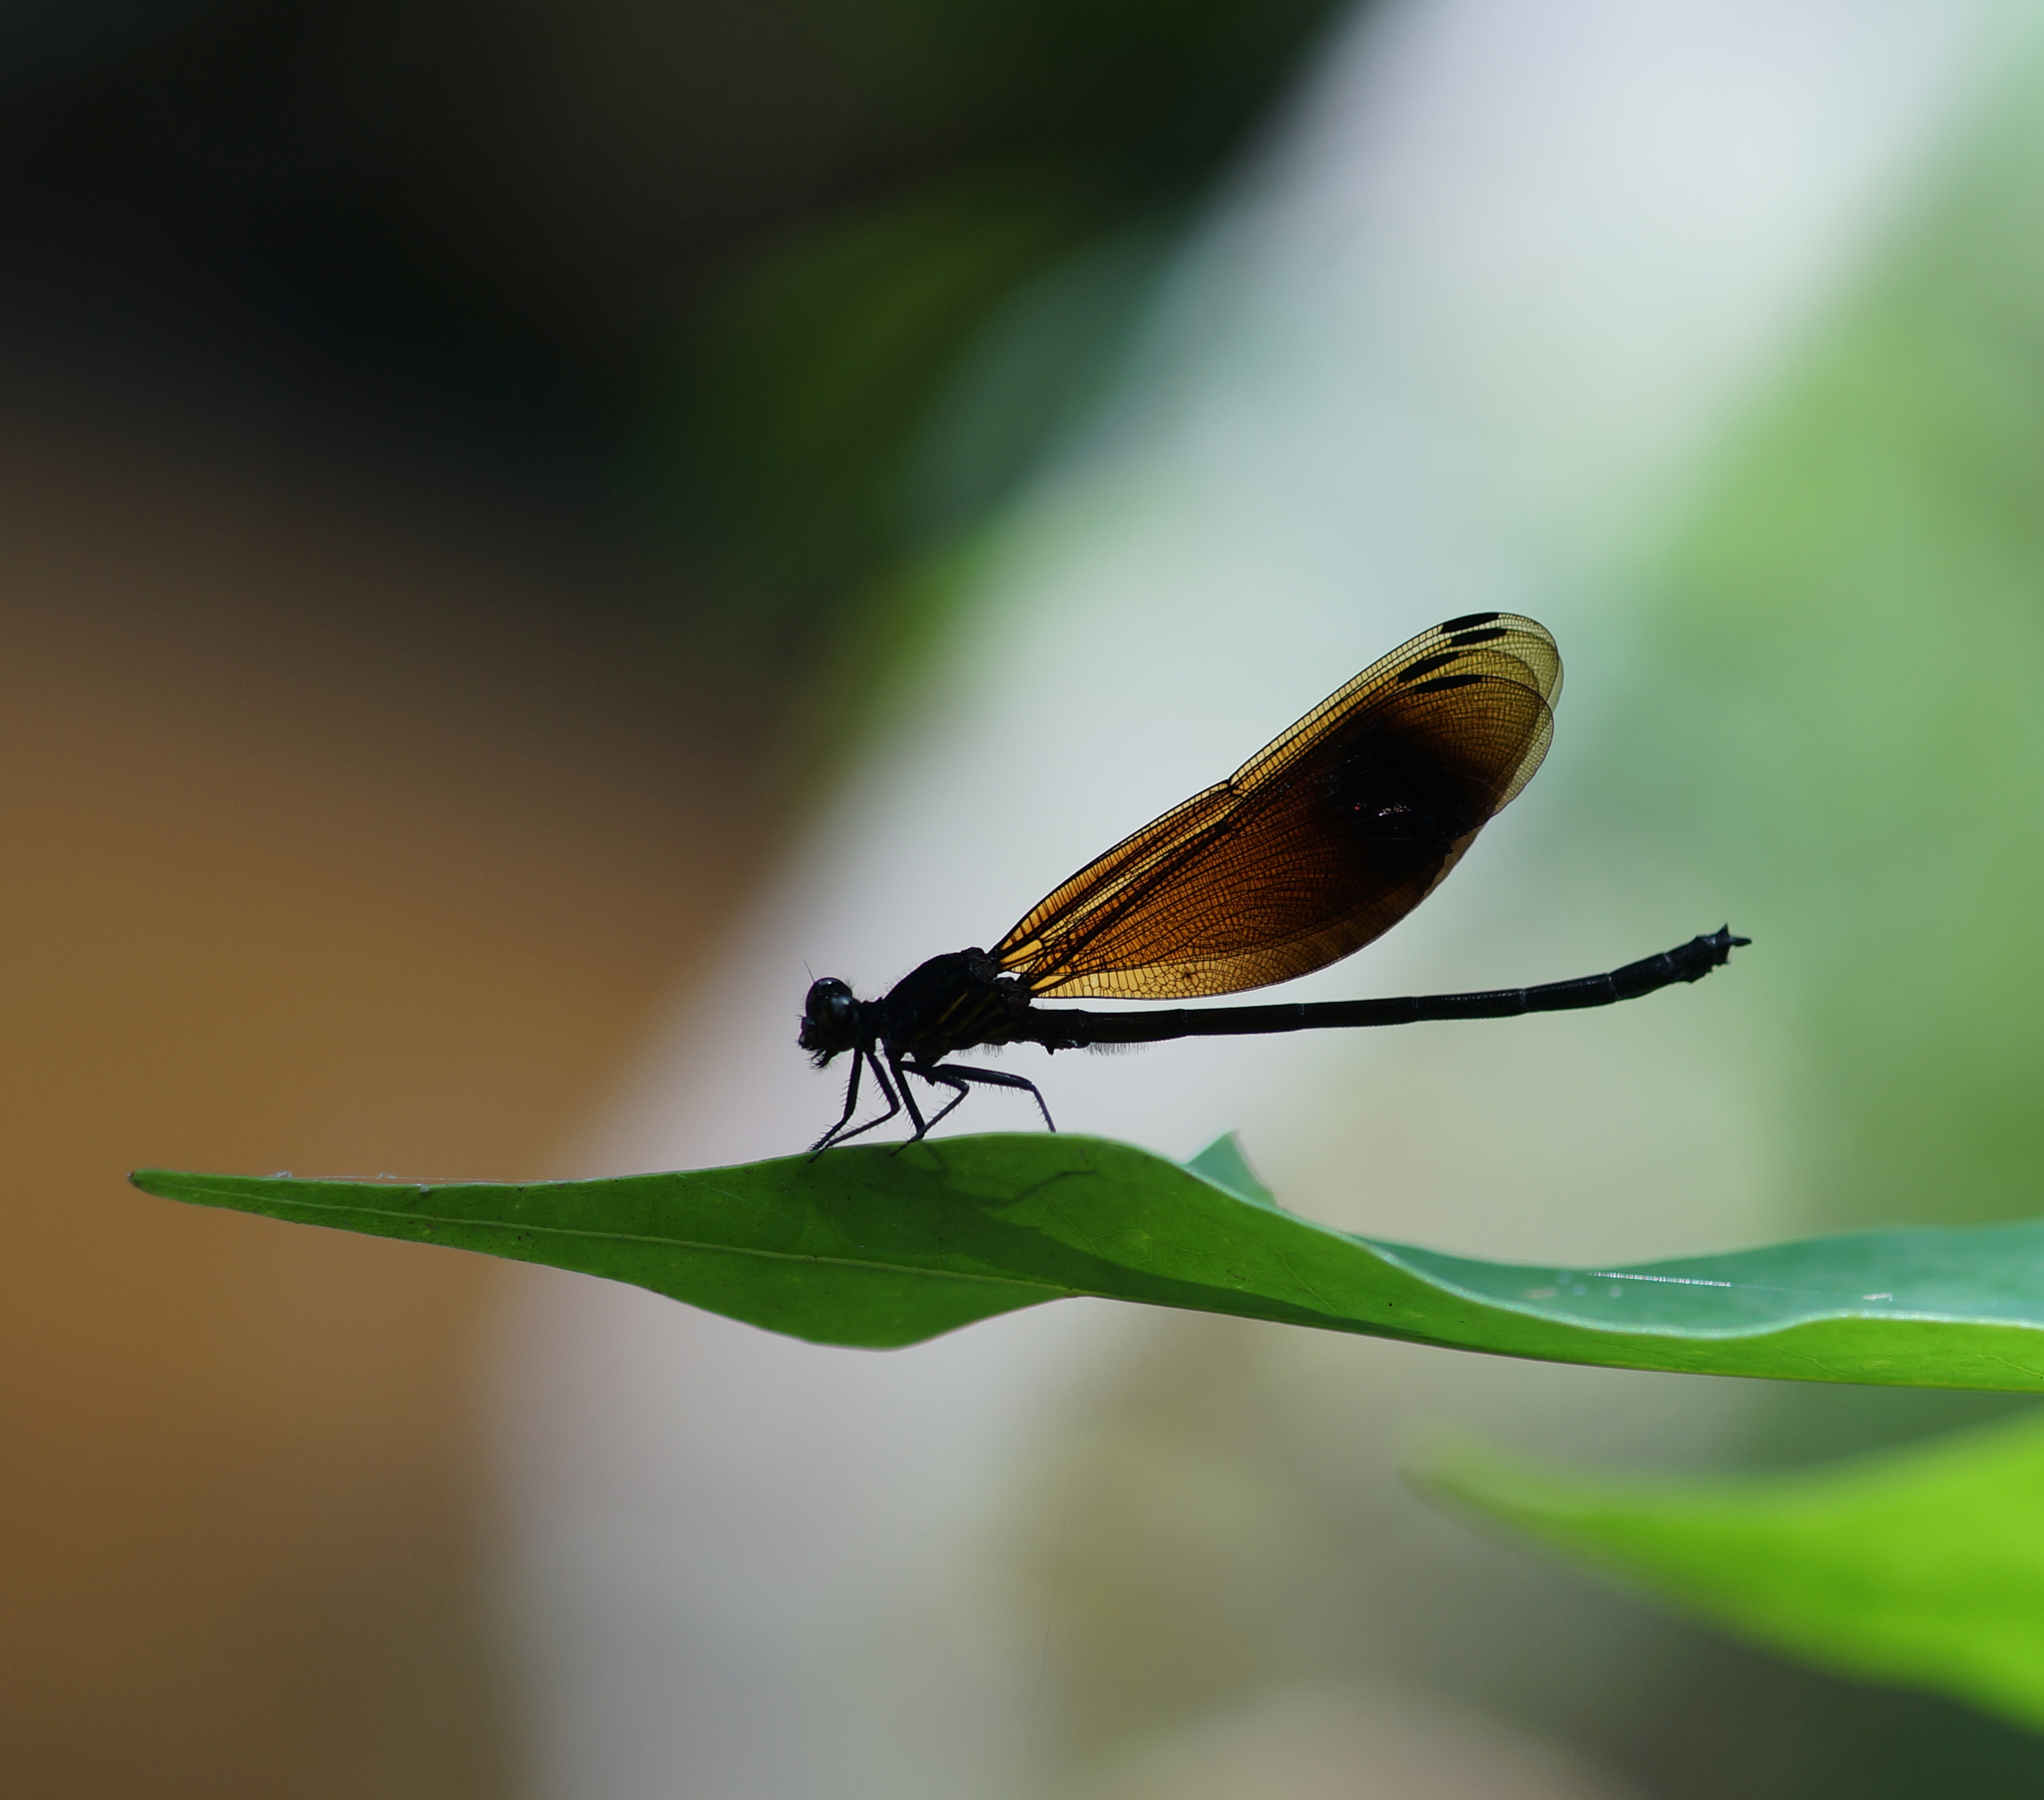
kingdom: Animalia
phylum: Arthropoda
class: Insecta
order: Odonata
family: Euphaeidae
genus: Euphaea
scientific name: Euphaea masoni
